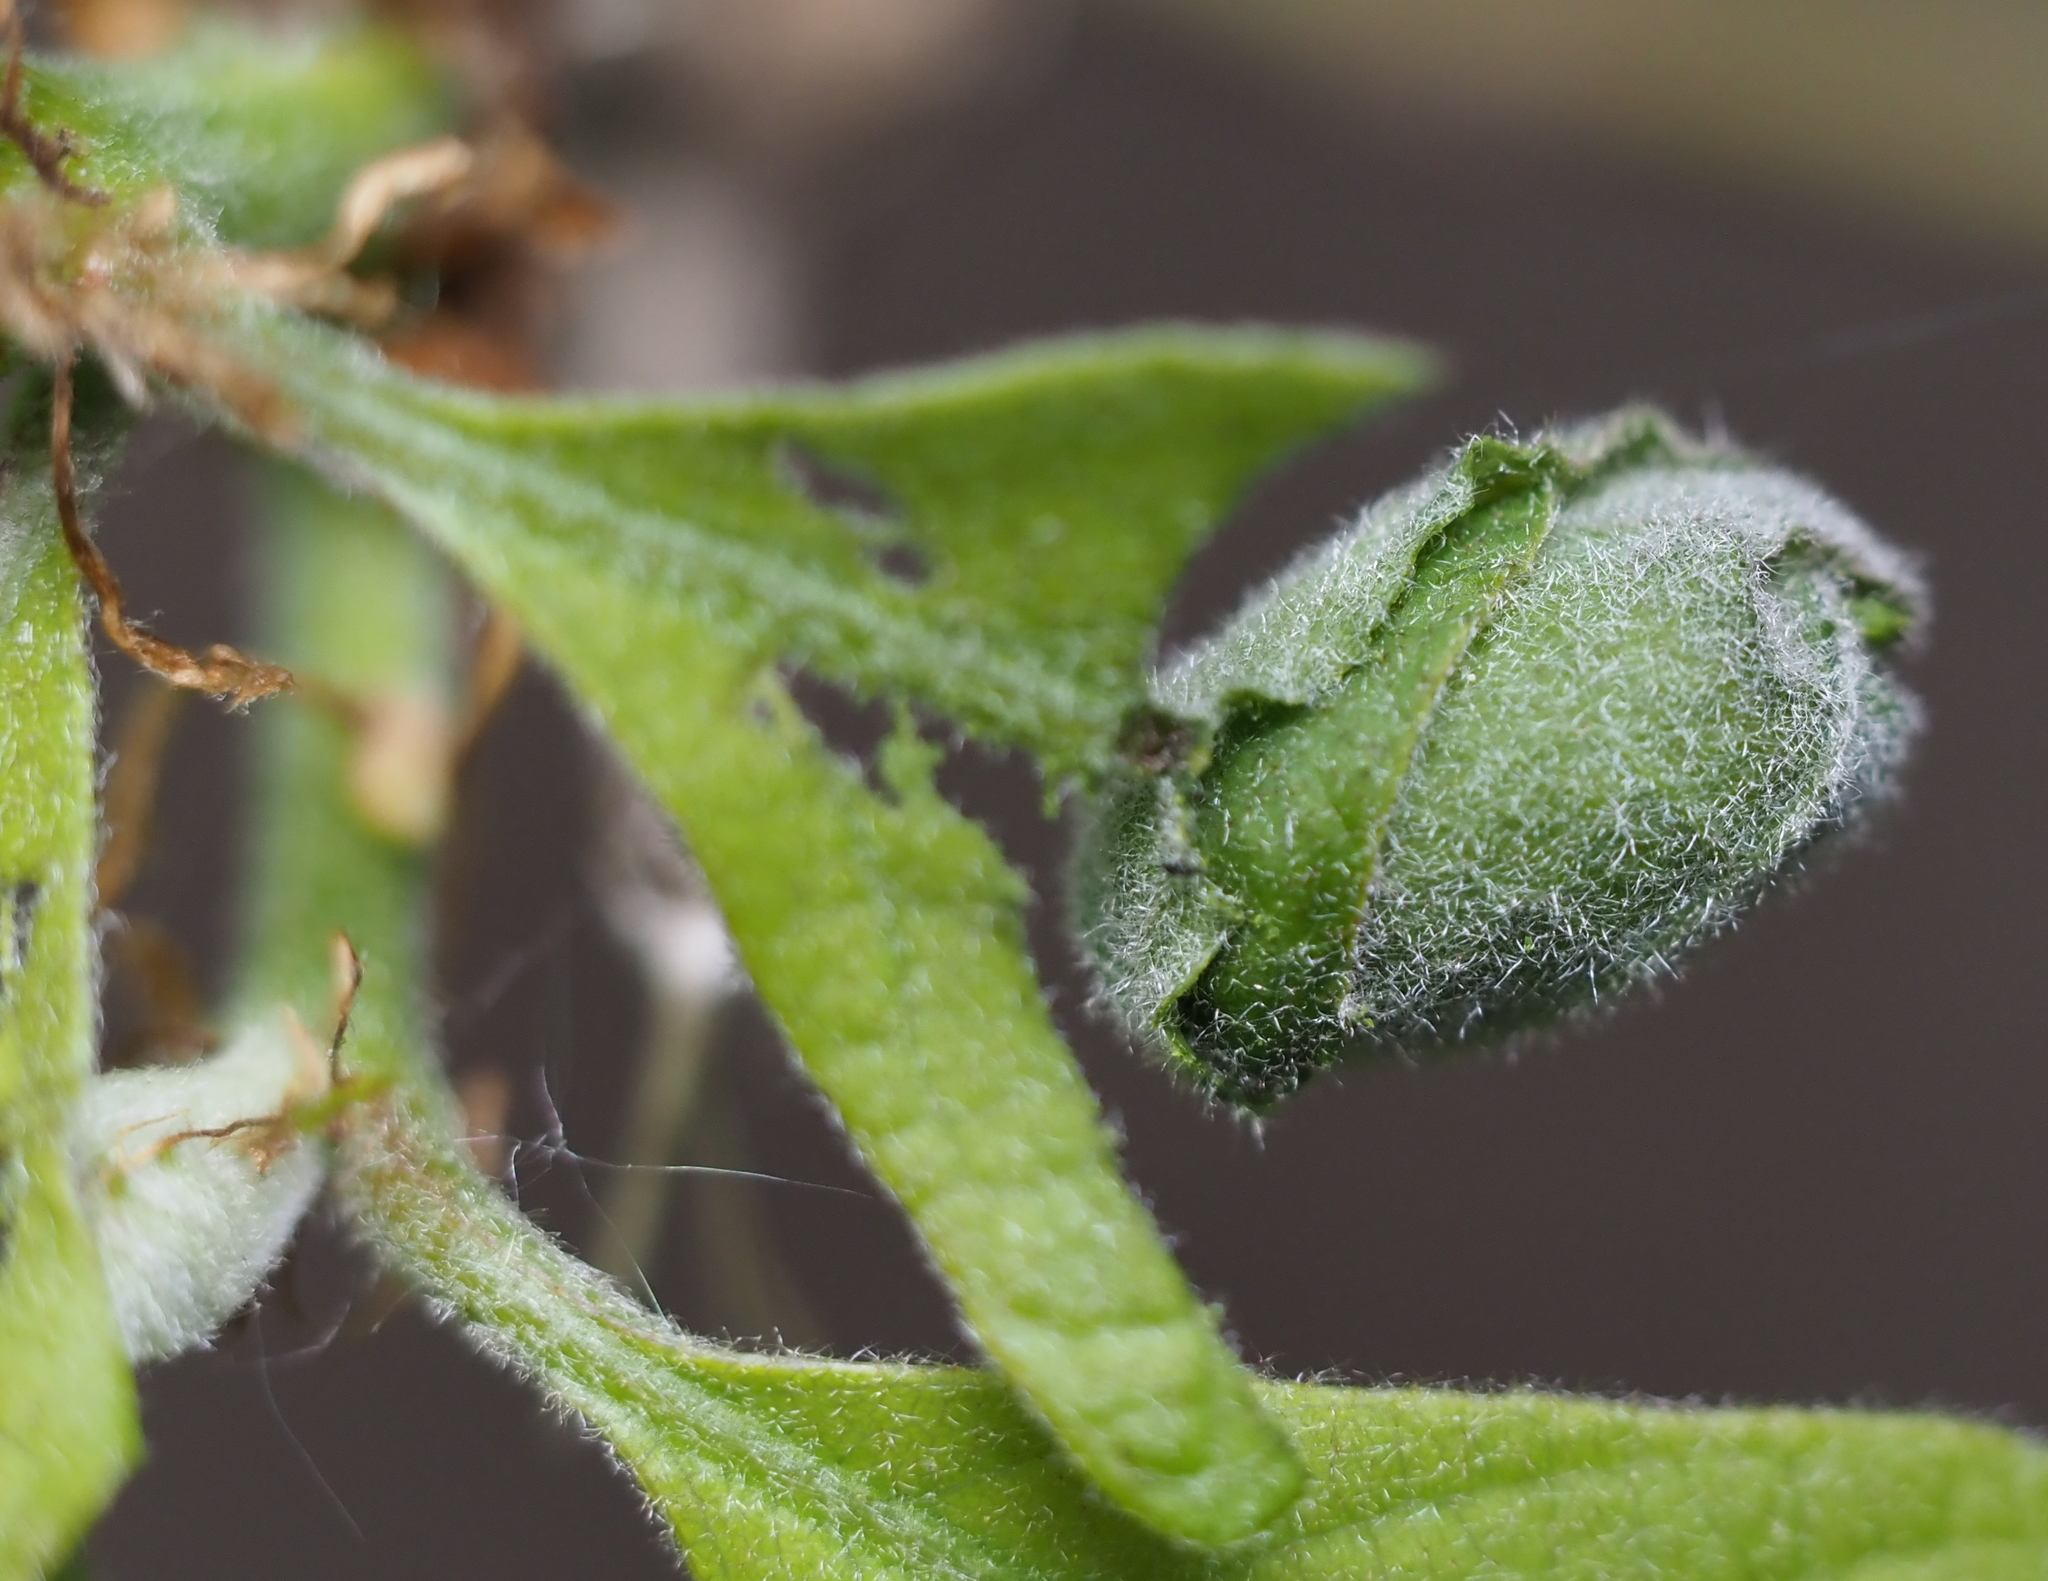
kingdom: Animalia
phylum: Arthropoda
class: Insecta
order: Coleoptera
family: Attelabidae
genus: Attelabus
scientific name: Attelabus bipustulatus
